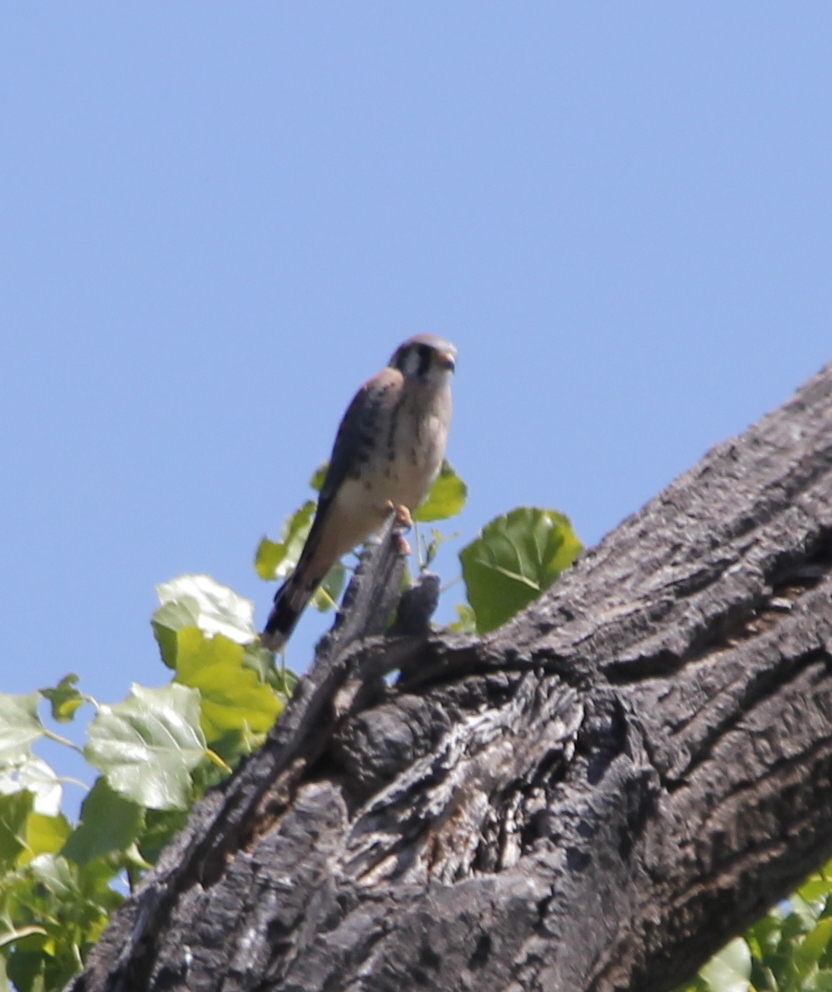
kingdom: Animalia
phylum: Chordata
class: Aves
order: Falconiformes
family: Falconidae
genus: Falco
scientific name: Falco sparverius
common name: American kestrel
